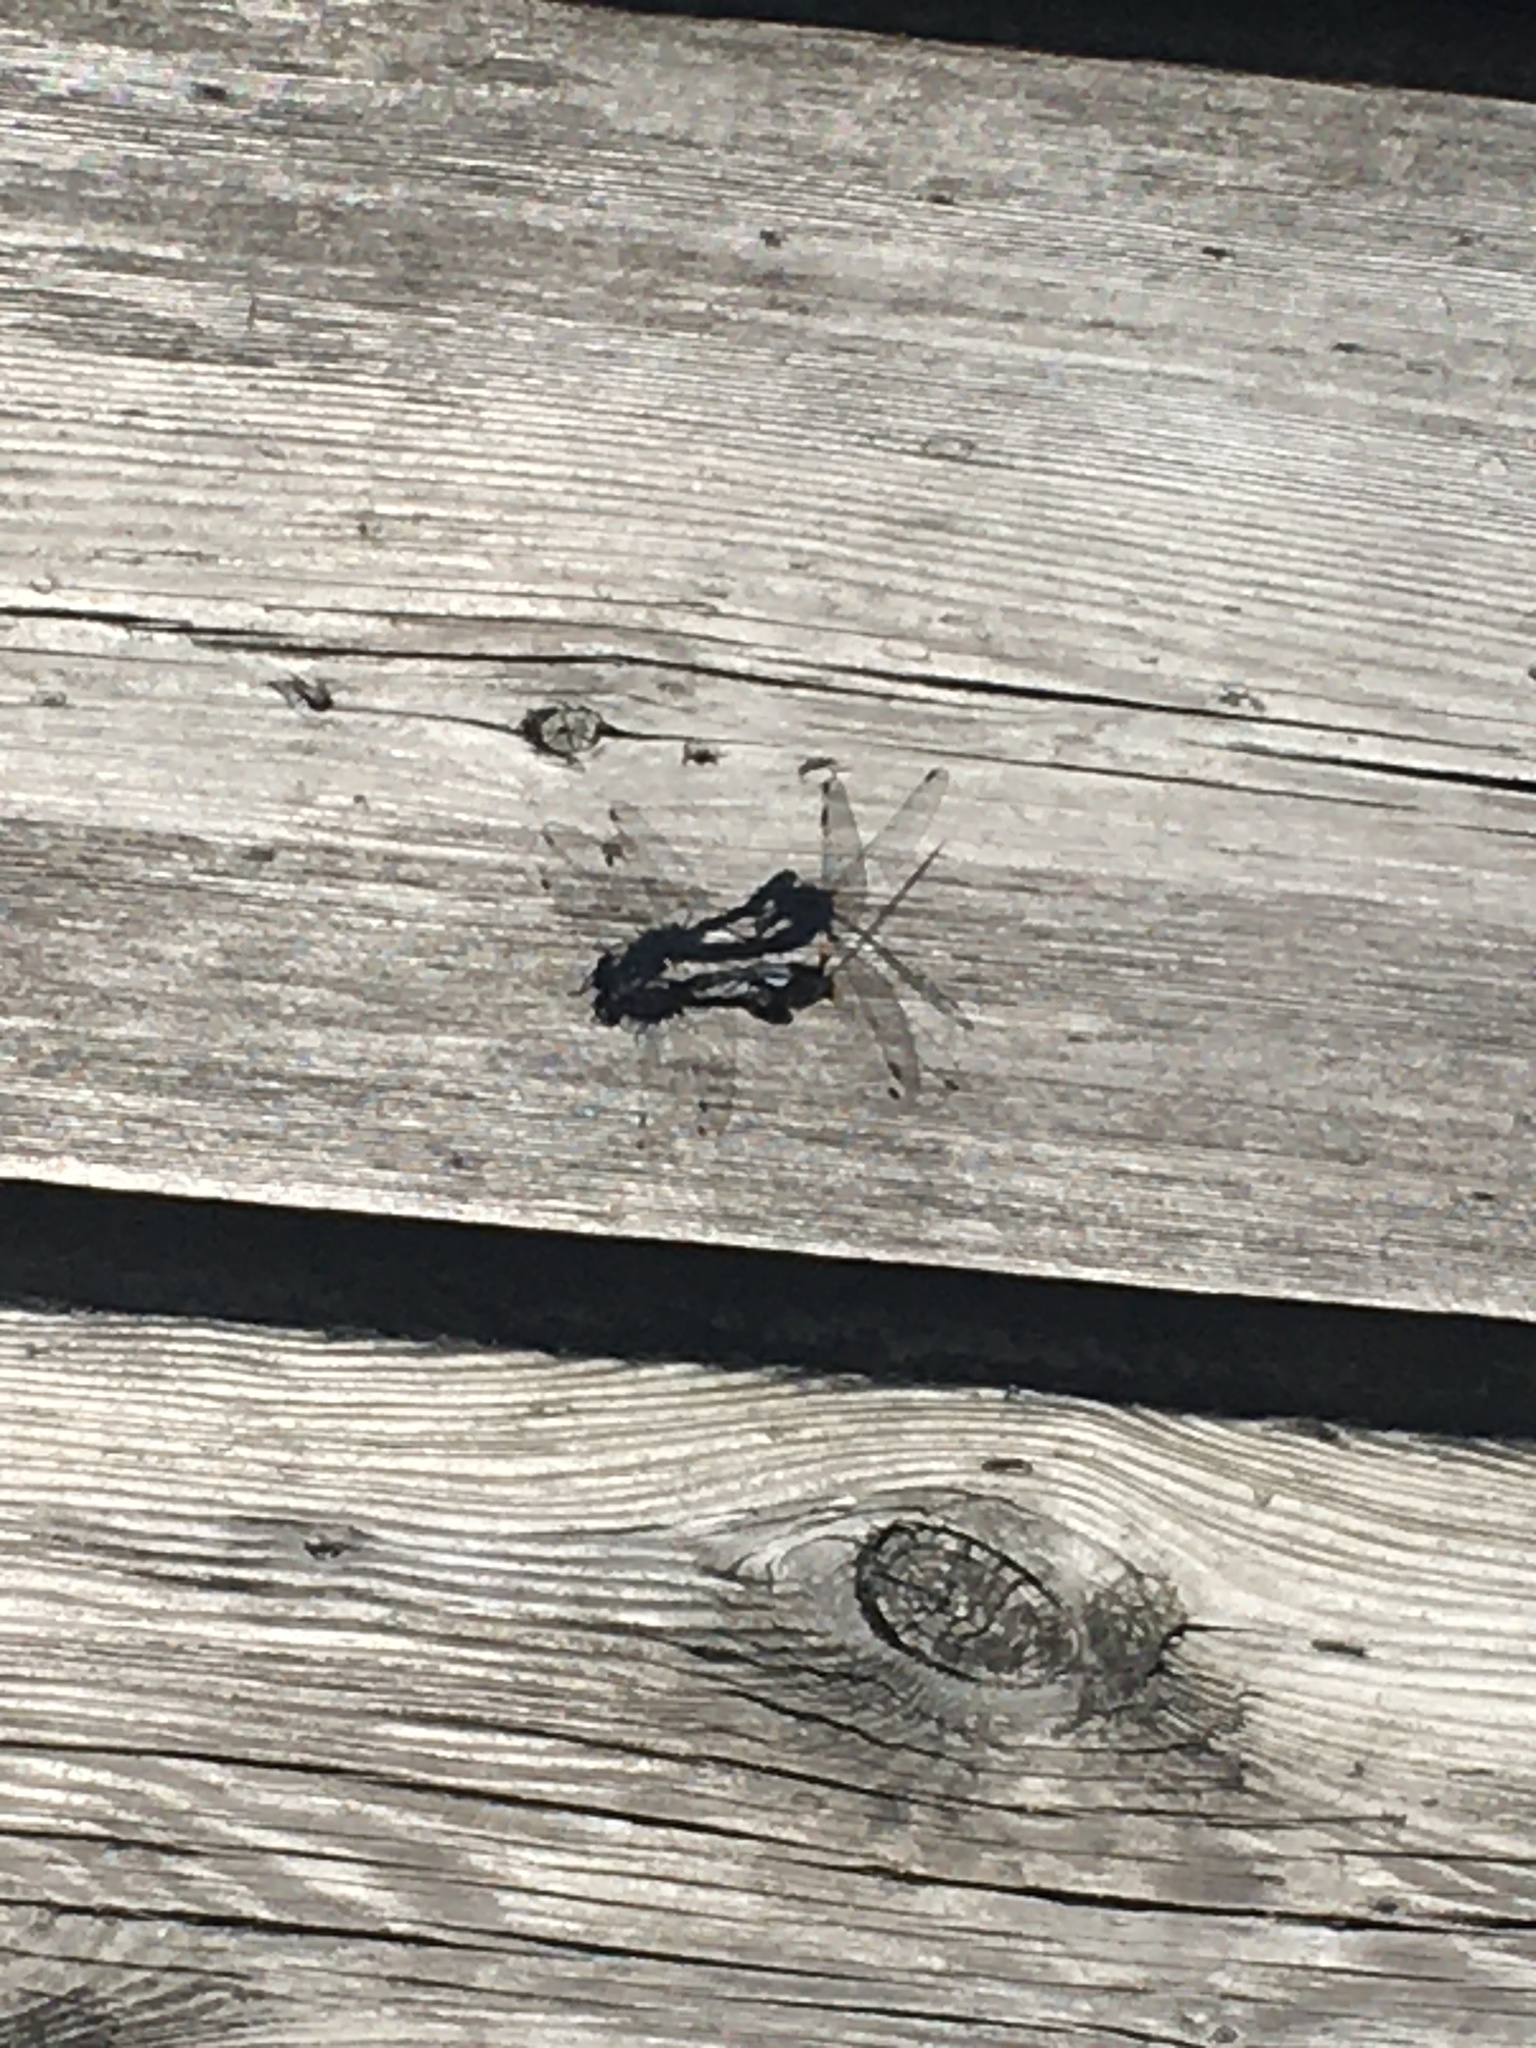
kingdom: Animalia
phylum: Arthropoda
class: Insecta
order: Odonata
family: Libellulidae
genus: Leucorrhinia
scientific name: Leucorrhinia intacta
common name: Dot-tailed whiteface
